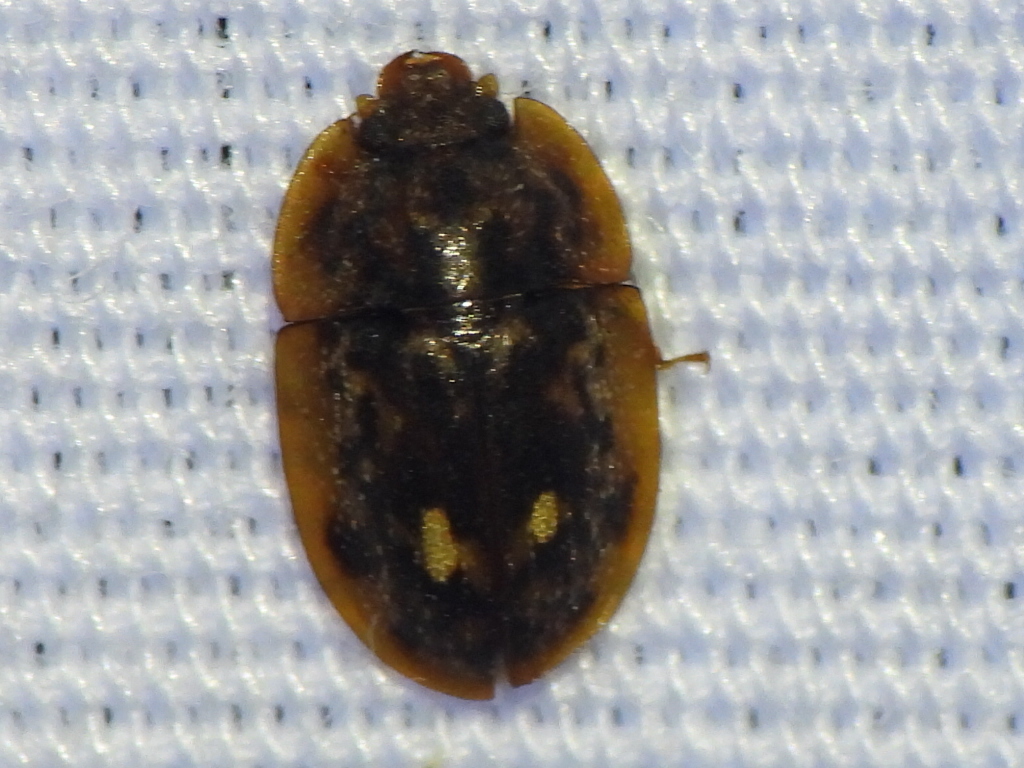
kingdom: Animalia
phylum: Arthropoda
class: Insecta
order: Coleoptera
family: Nitidulidae
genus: Lobiopa
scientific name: Lobiopa undulata
